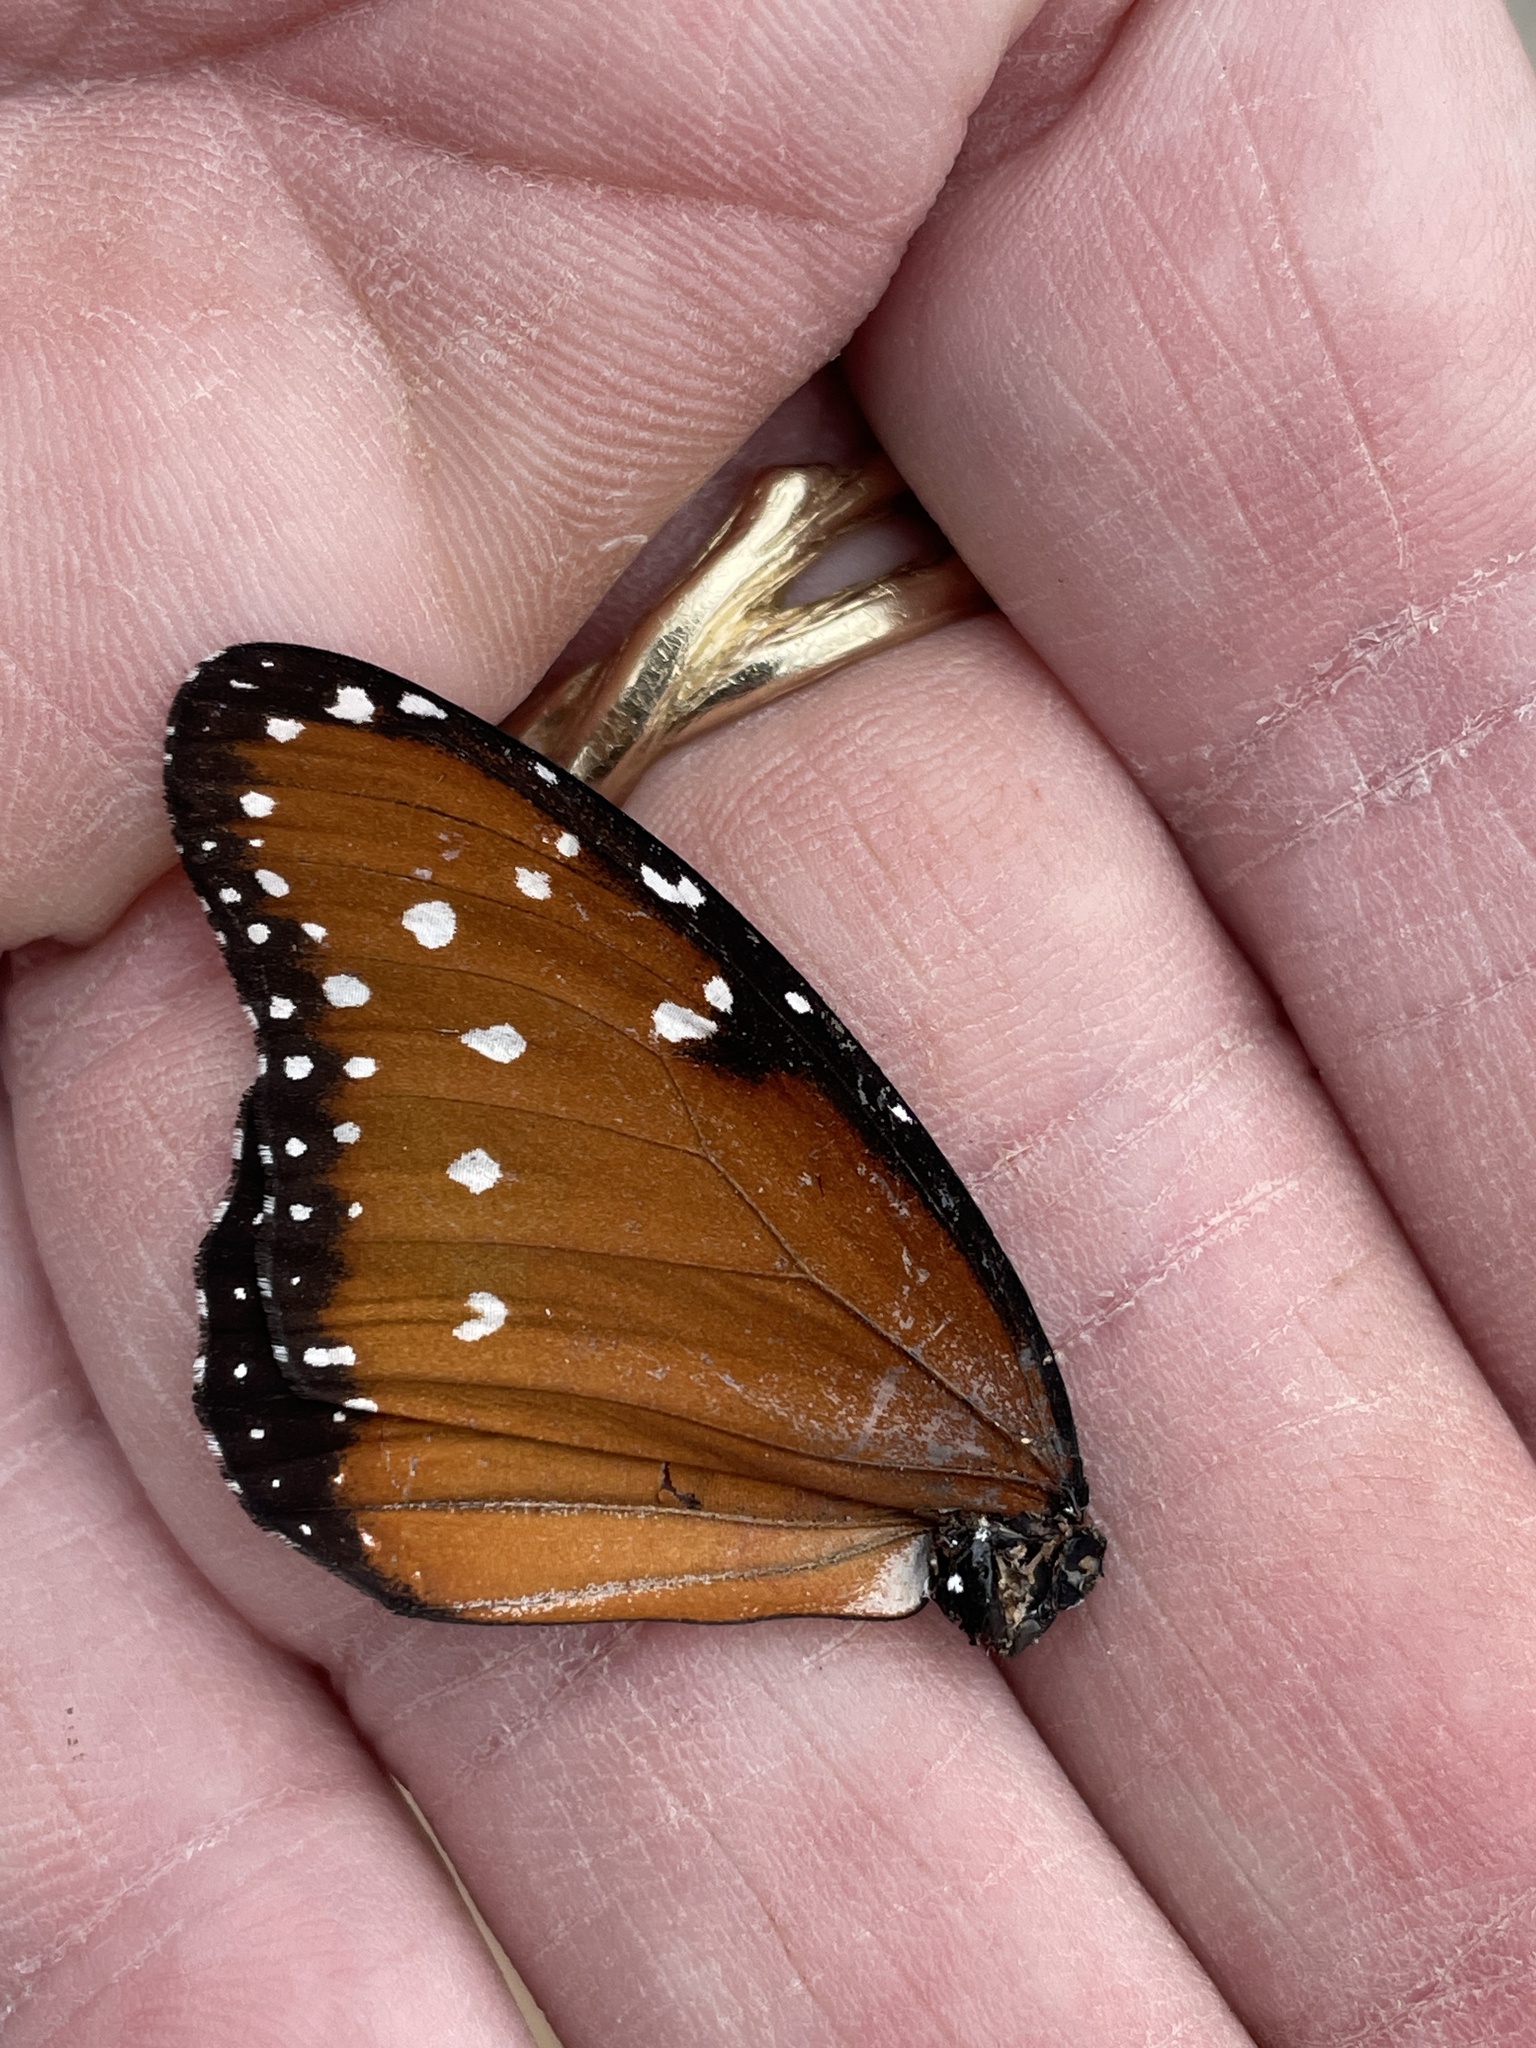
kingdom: Animalia
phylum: Arthropoda
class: Insecta
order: Lepidoptera
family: Nymphalidae
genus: Danaus
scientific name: Danaus gilippus
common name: Queen
